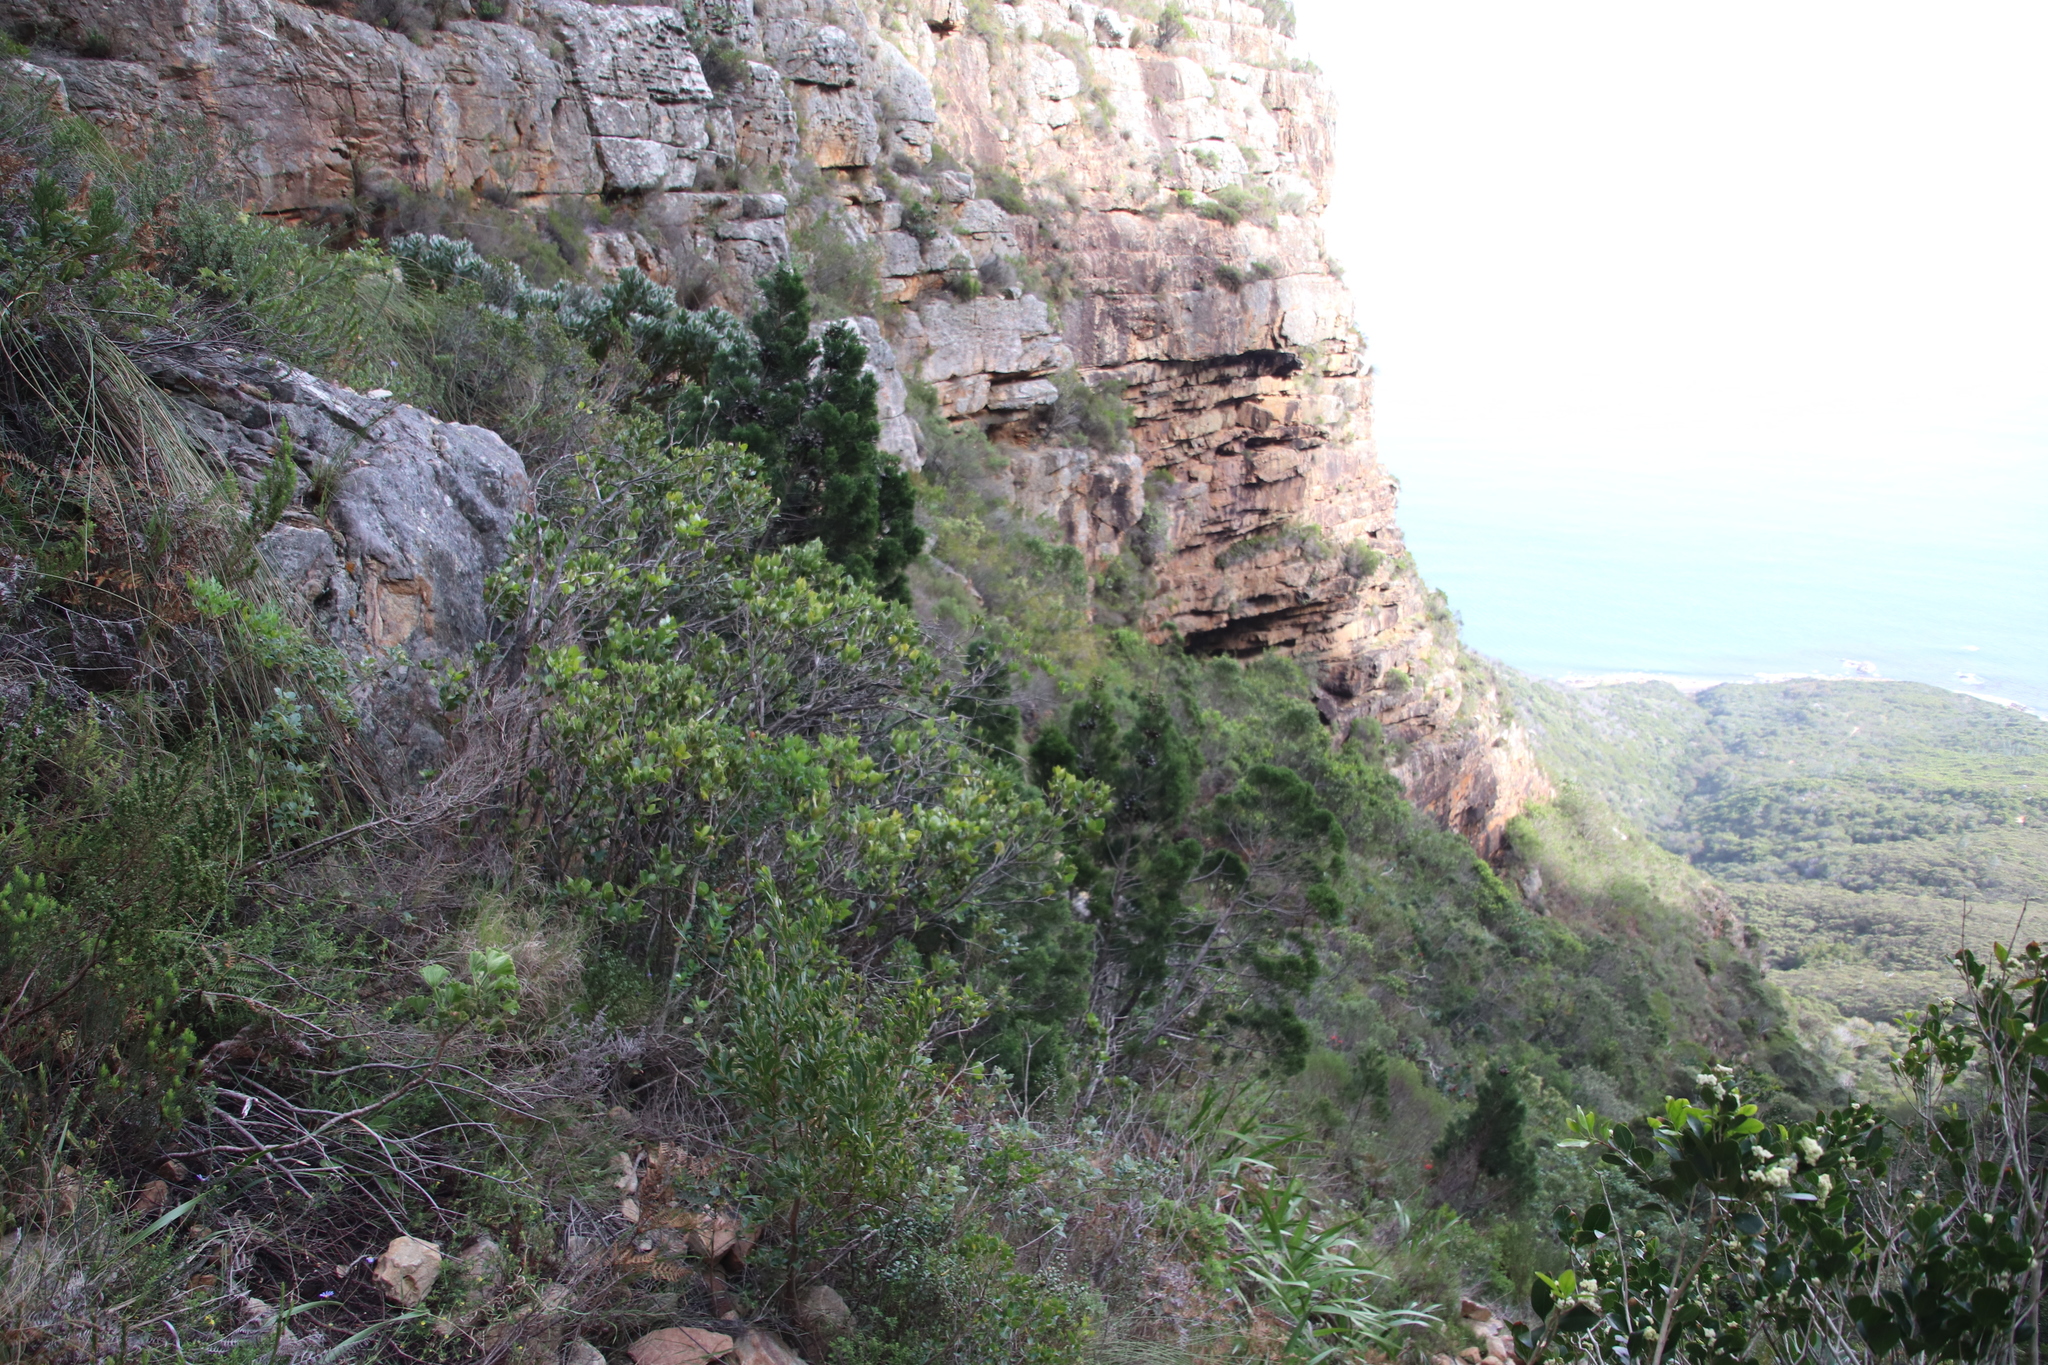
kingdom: Plantae
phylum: Tracheophyta
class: Magnoliopsida
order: Fabales
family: Fabaceae
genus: Acacia
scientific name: Acacia melanoxylon
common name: Blackwood
